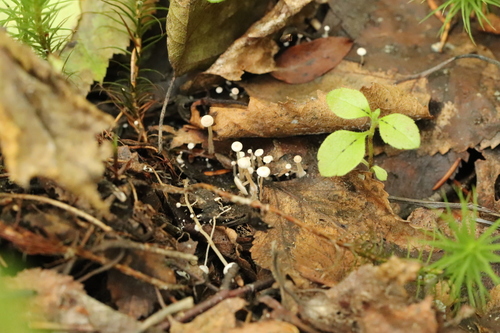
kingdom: Fungi
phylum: Basidiomycota
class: Agaricomycetes
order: Agaricales
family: Tricholomataceae
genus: Collybia
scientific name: Collybia cirrhata
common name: Piggyback shanklet
